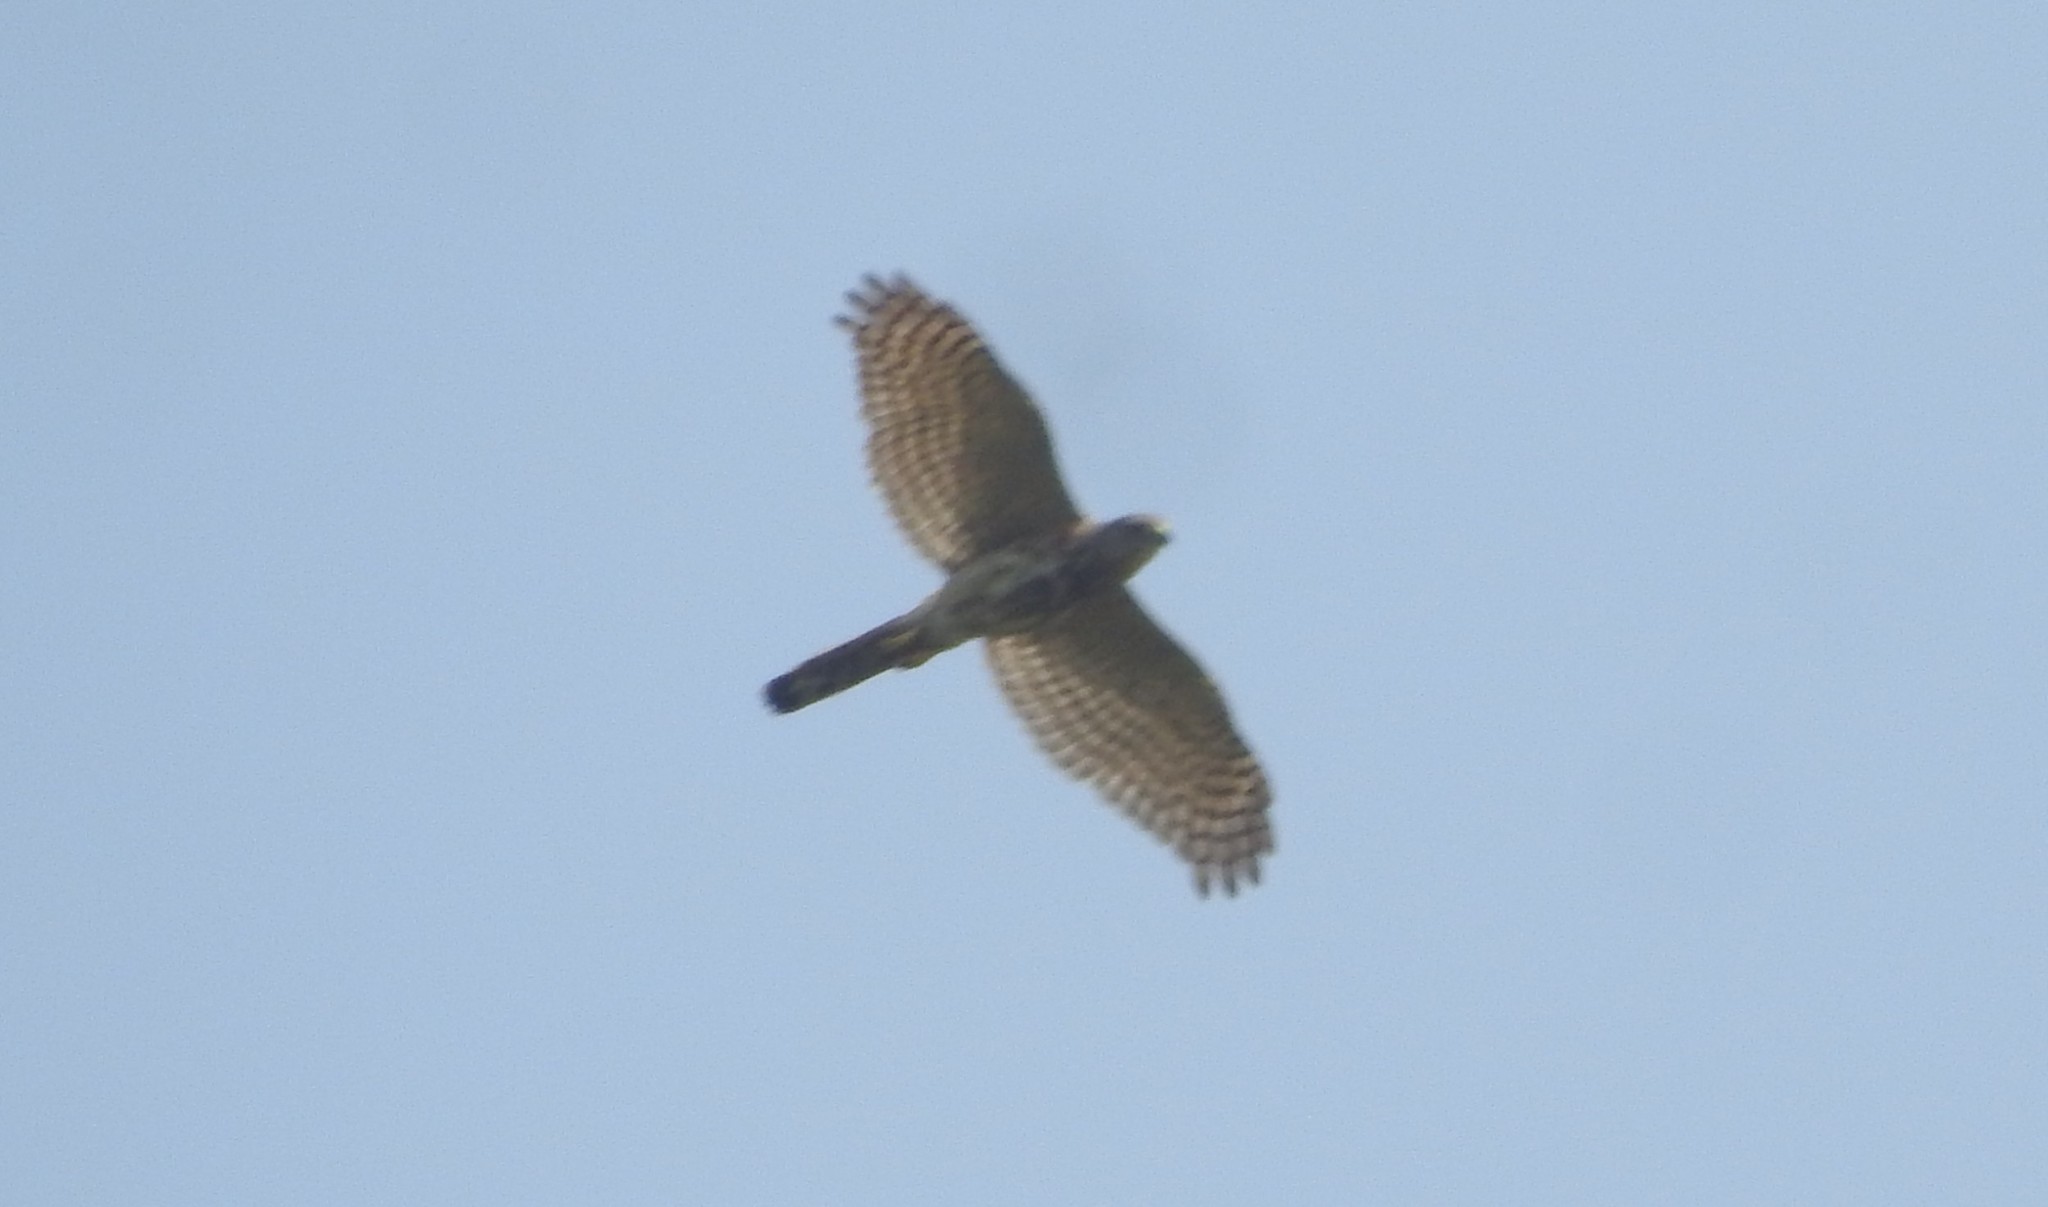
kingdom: Animalia
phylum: Chordata
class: Aves
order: Accipitriformes
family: Accipitridae
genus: Accipiter
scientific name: Accipiter badius
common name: Shikra
